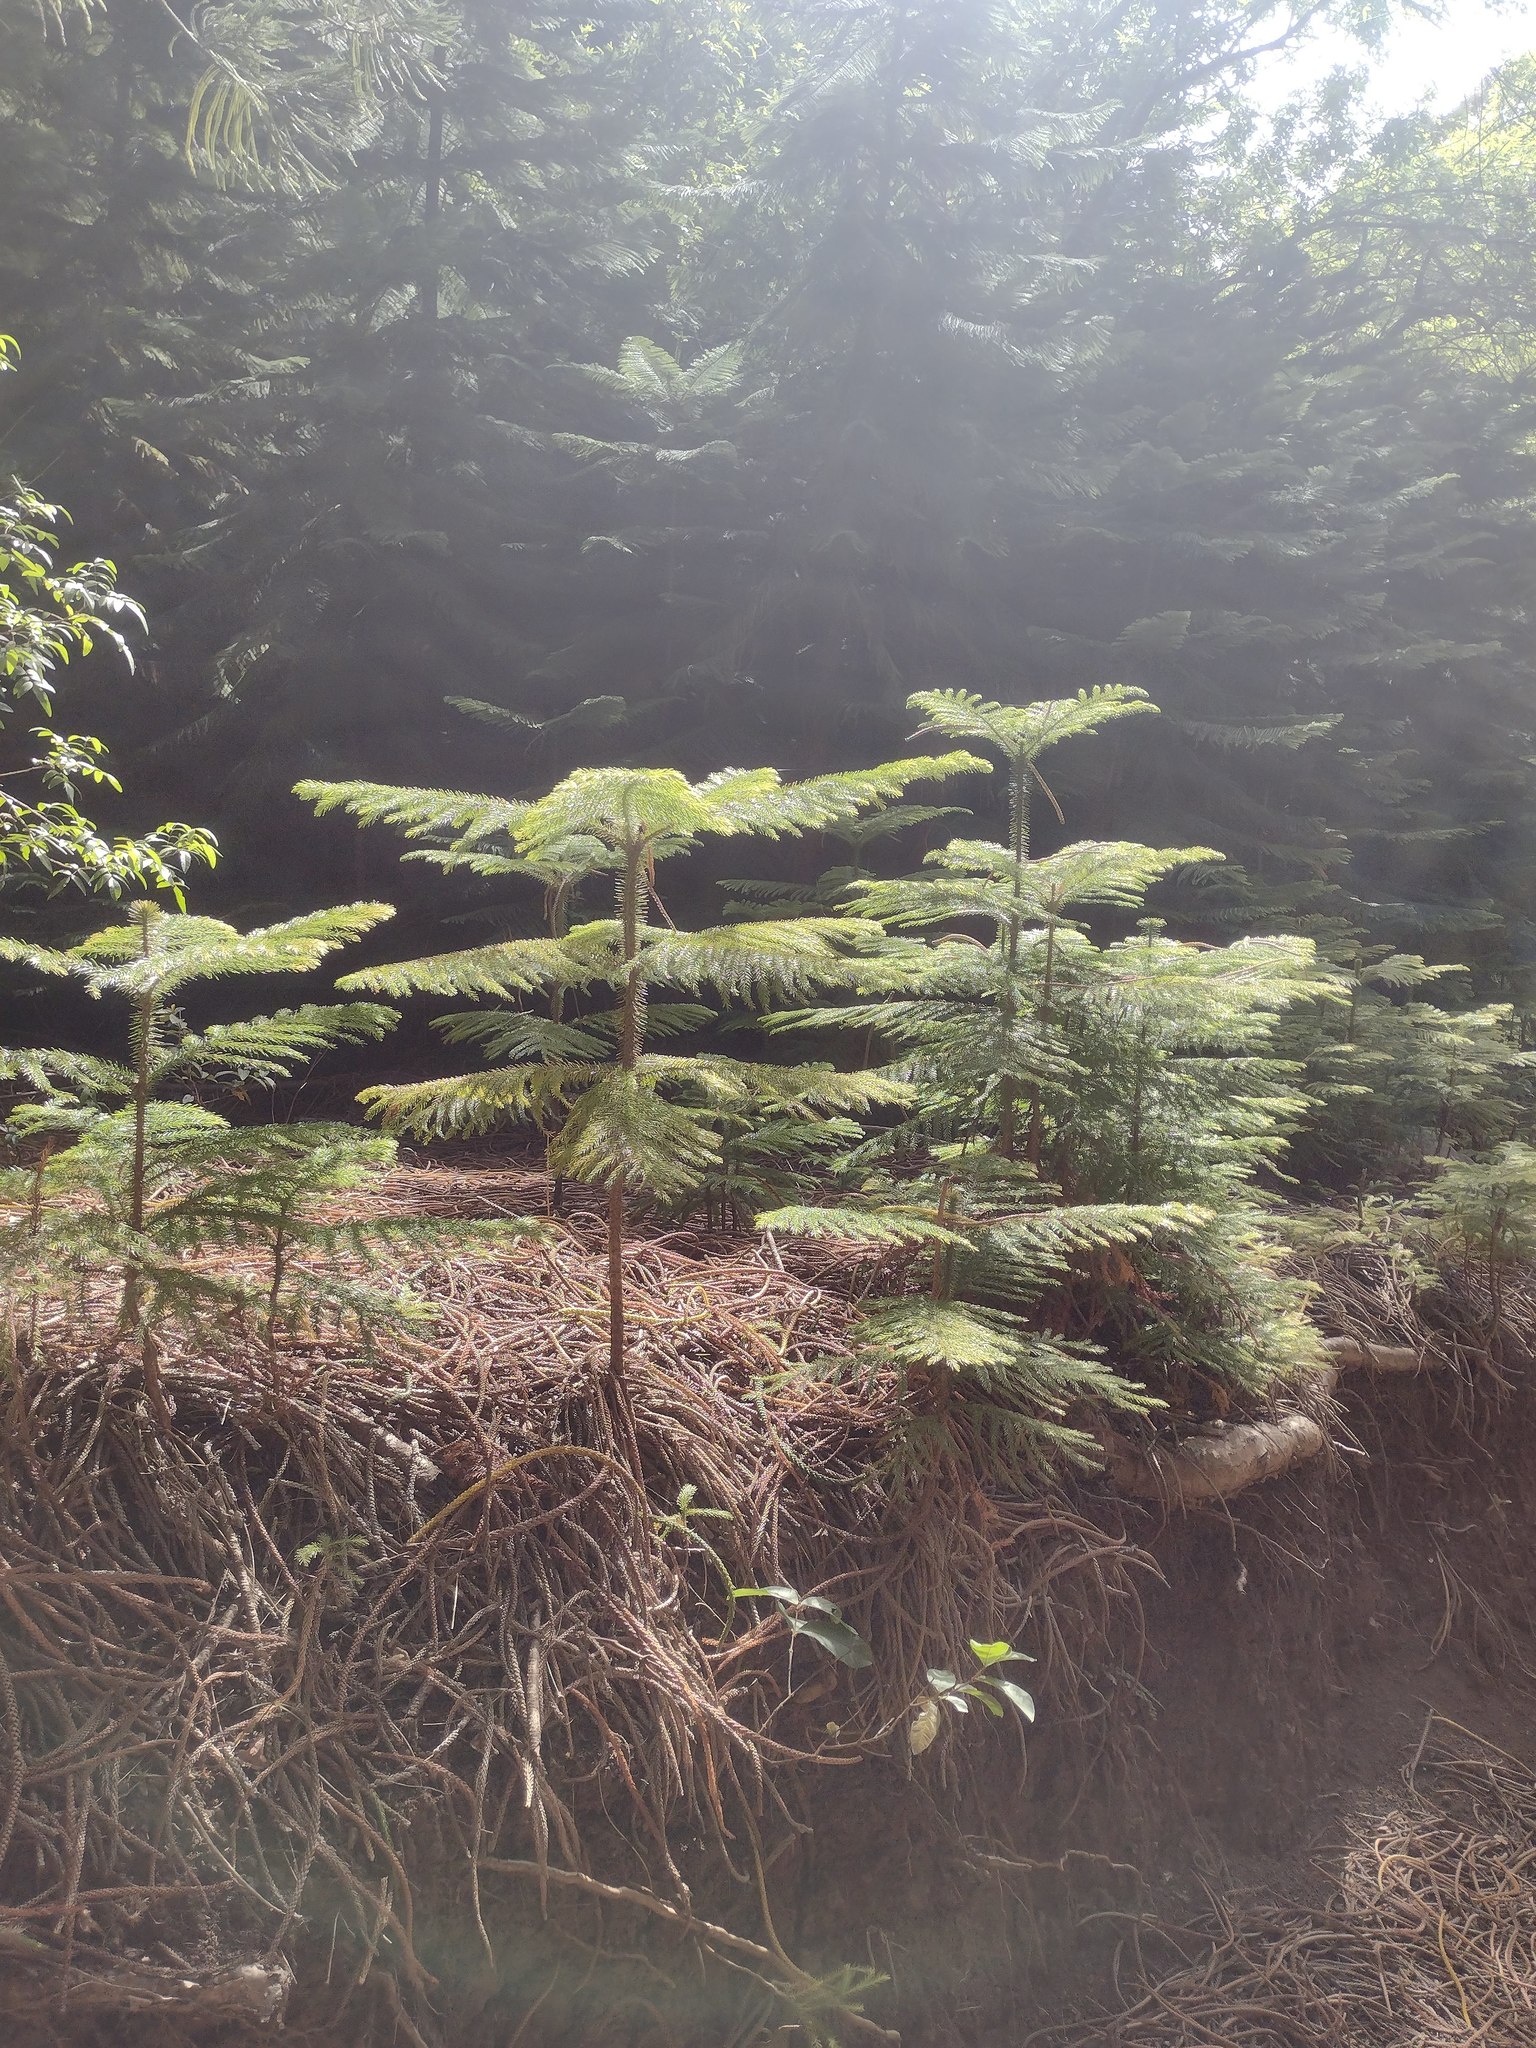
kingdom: Plantae
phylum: Tracheophyta
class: Pinopsida
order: Pinales
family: Araucariaceae
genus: Araucaria
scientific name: Araucaria columnaris
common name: Coral reef araucaria
